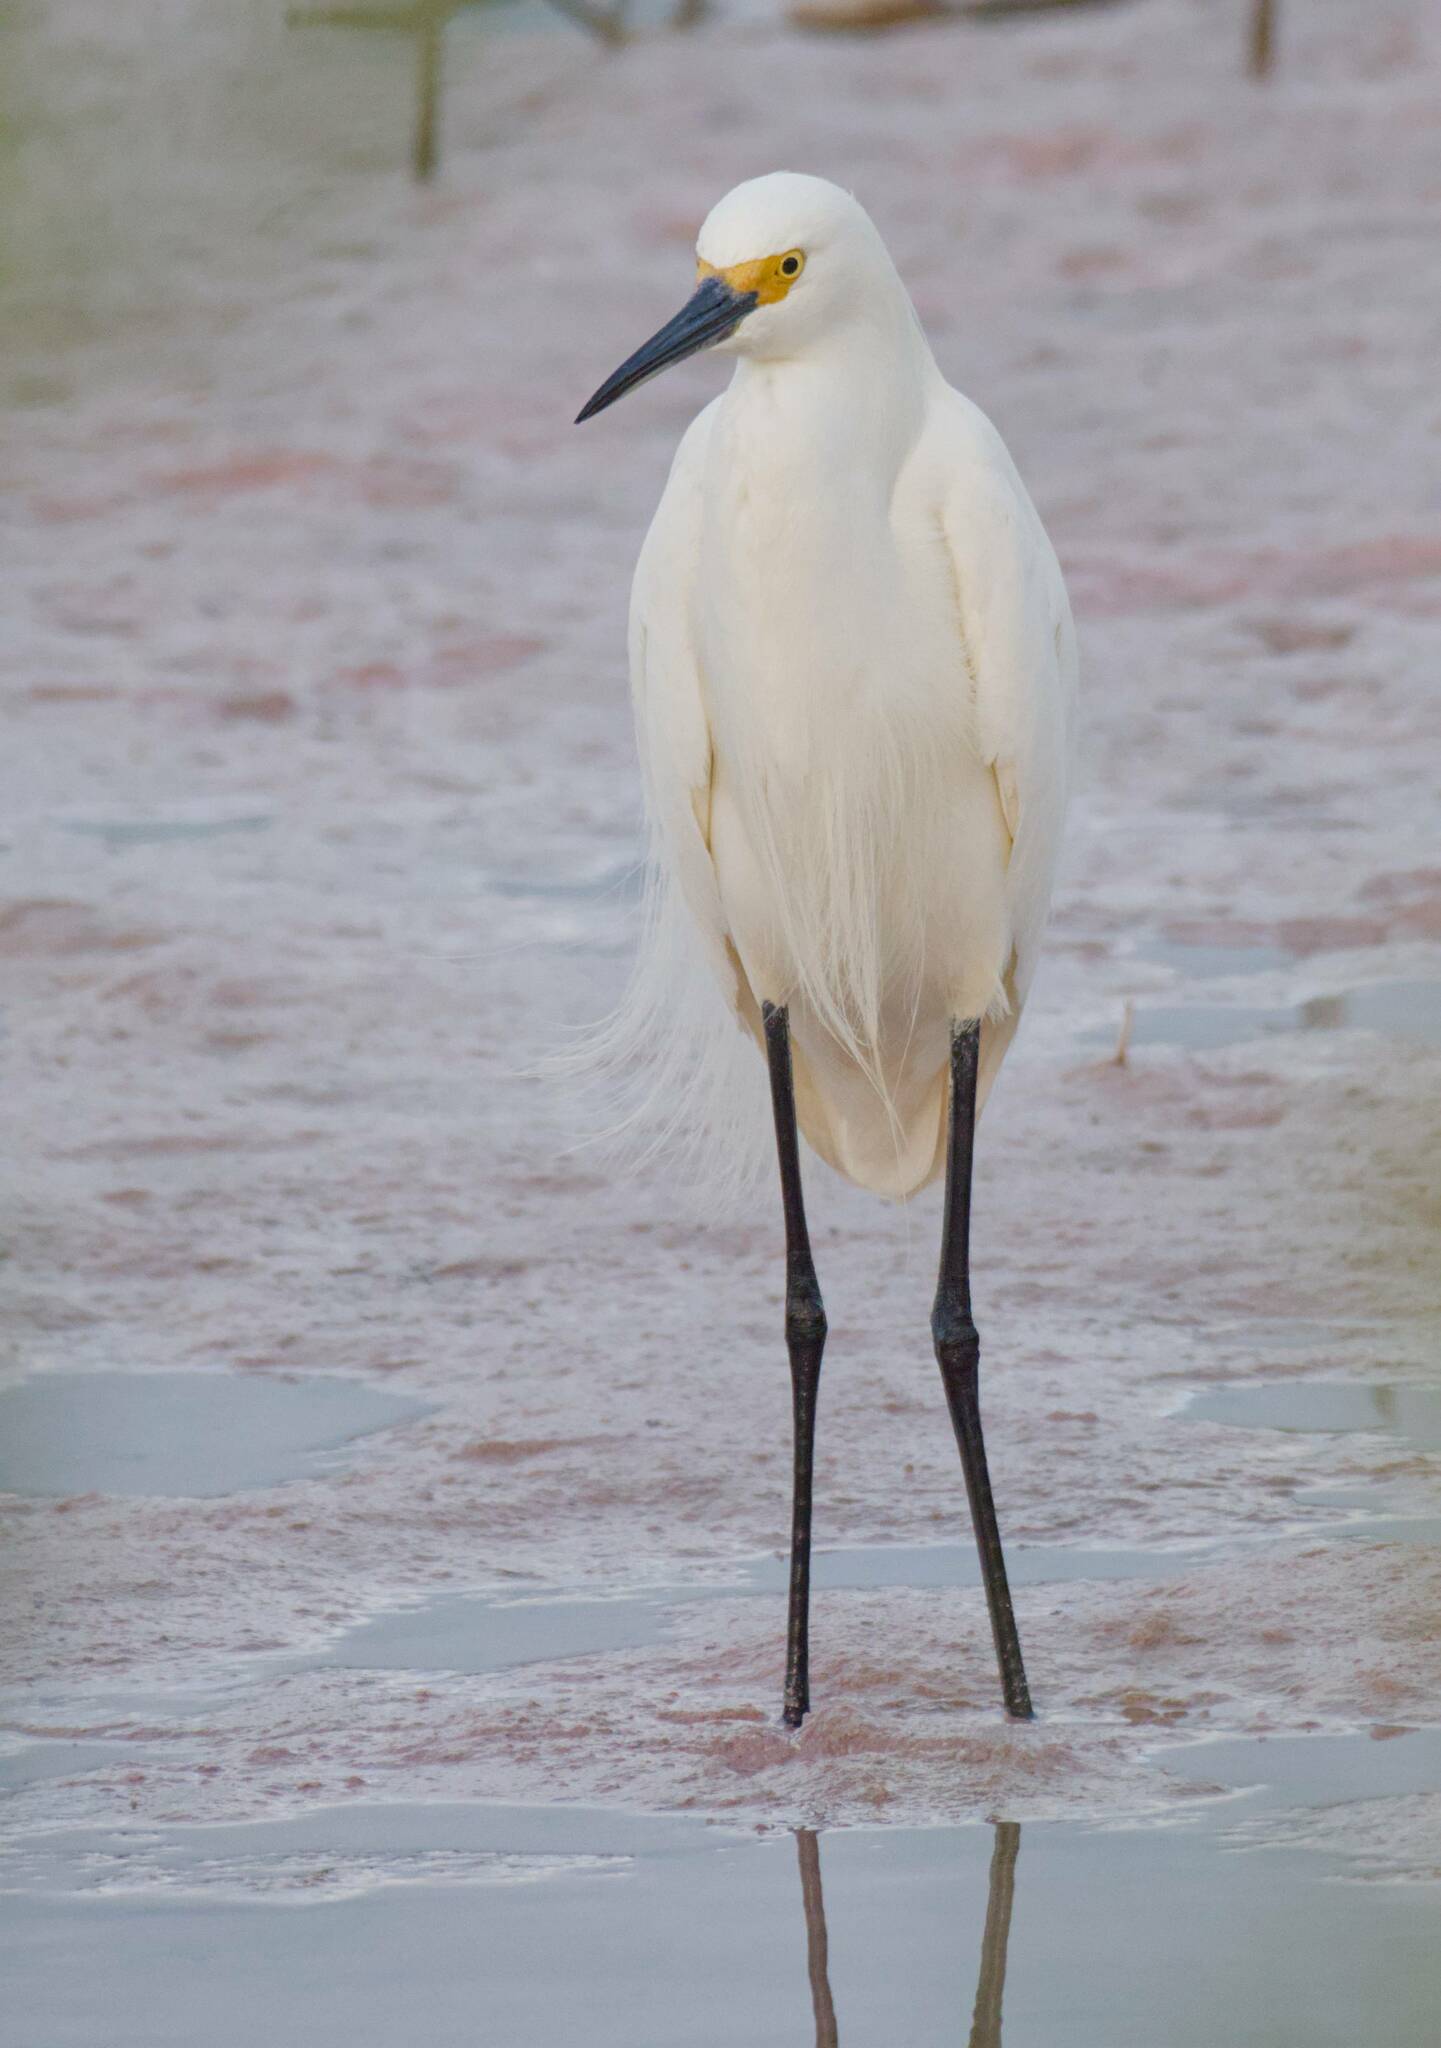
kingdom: Animalia
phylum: Chordata
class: Aves
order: Pelecaniformes
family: Ardeidae
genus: Egretta
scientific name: Egretta thula
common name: Snowy egret
